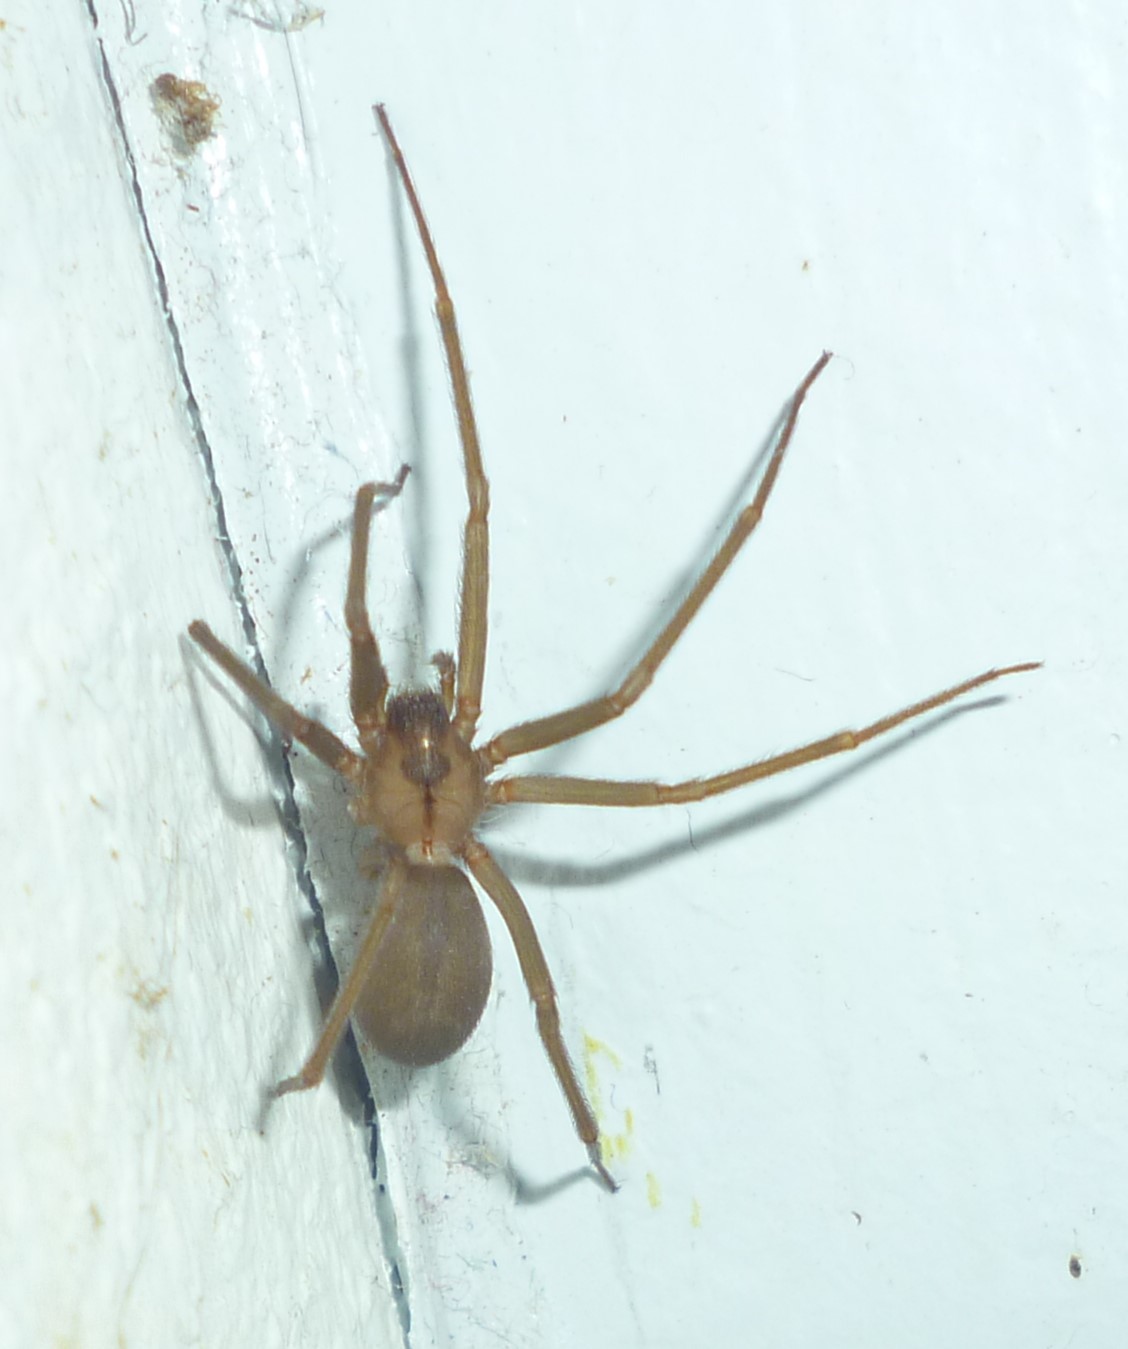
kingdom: Animalia
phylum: Arthropoda
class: Arachnida
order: Araneae
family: Sicariidae
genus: Loxosceles
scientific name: Loxosceles reclusa
